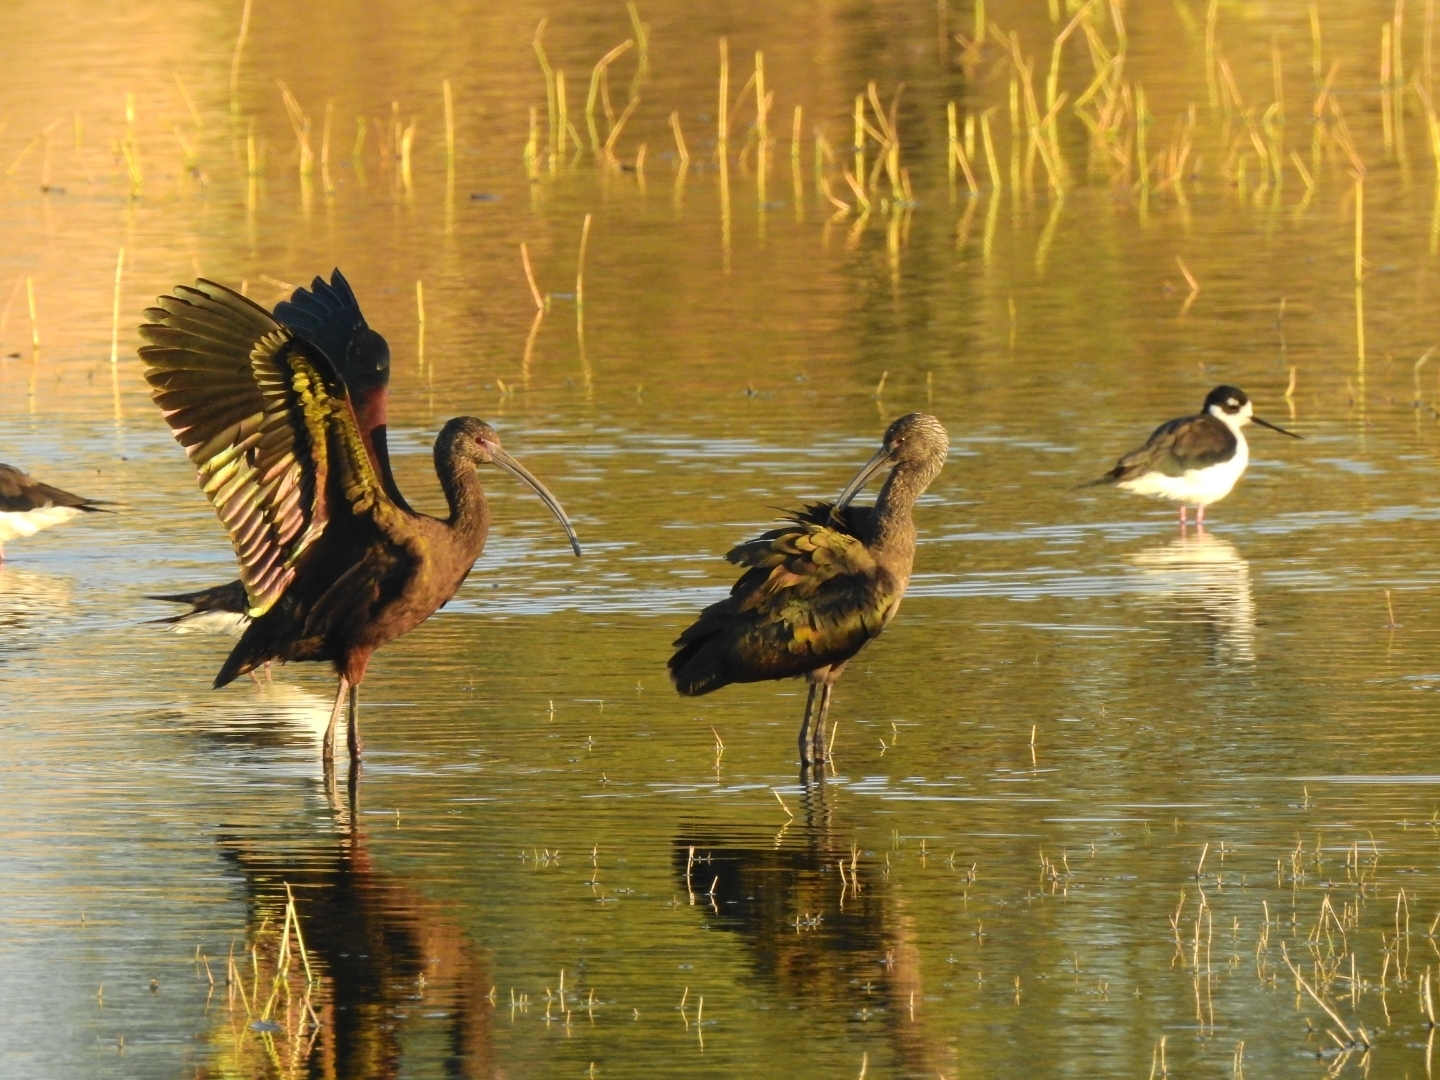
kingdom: Animalia
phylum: Chordata
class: Aves
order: Pelecaniformes
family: Threskiornithidae
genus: Plegadis
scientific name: Plegadis chihi
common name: White-faced ibis
